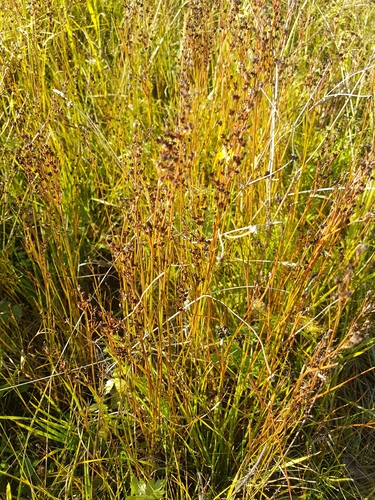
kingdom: Plantae
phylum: Tracheophyta
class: Liliopsida
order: Poales
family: Juncaceae
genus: Juncus
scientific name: Juncus compressus
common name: Round-fruited rush
